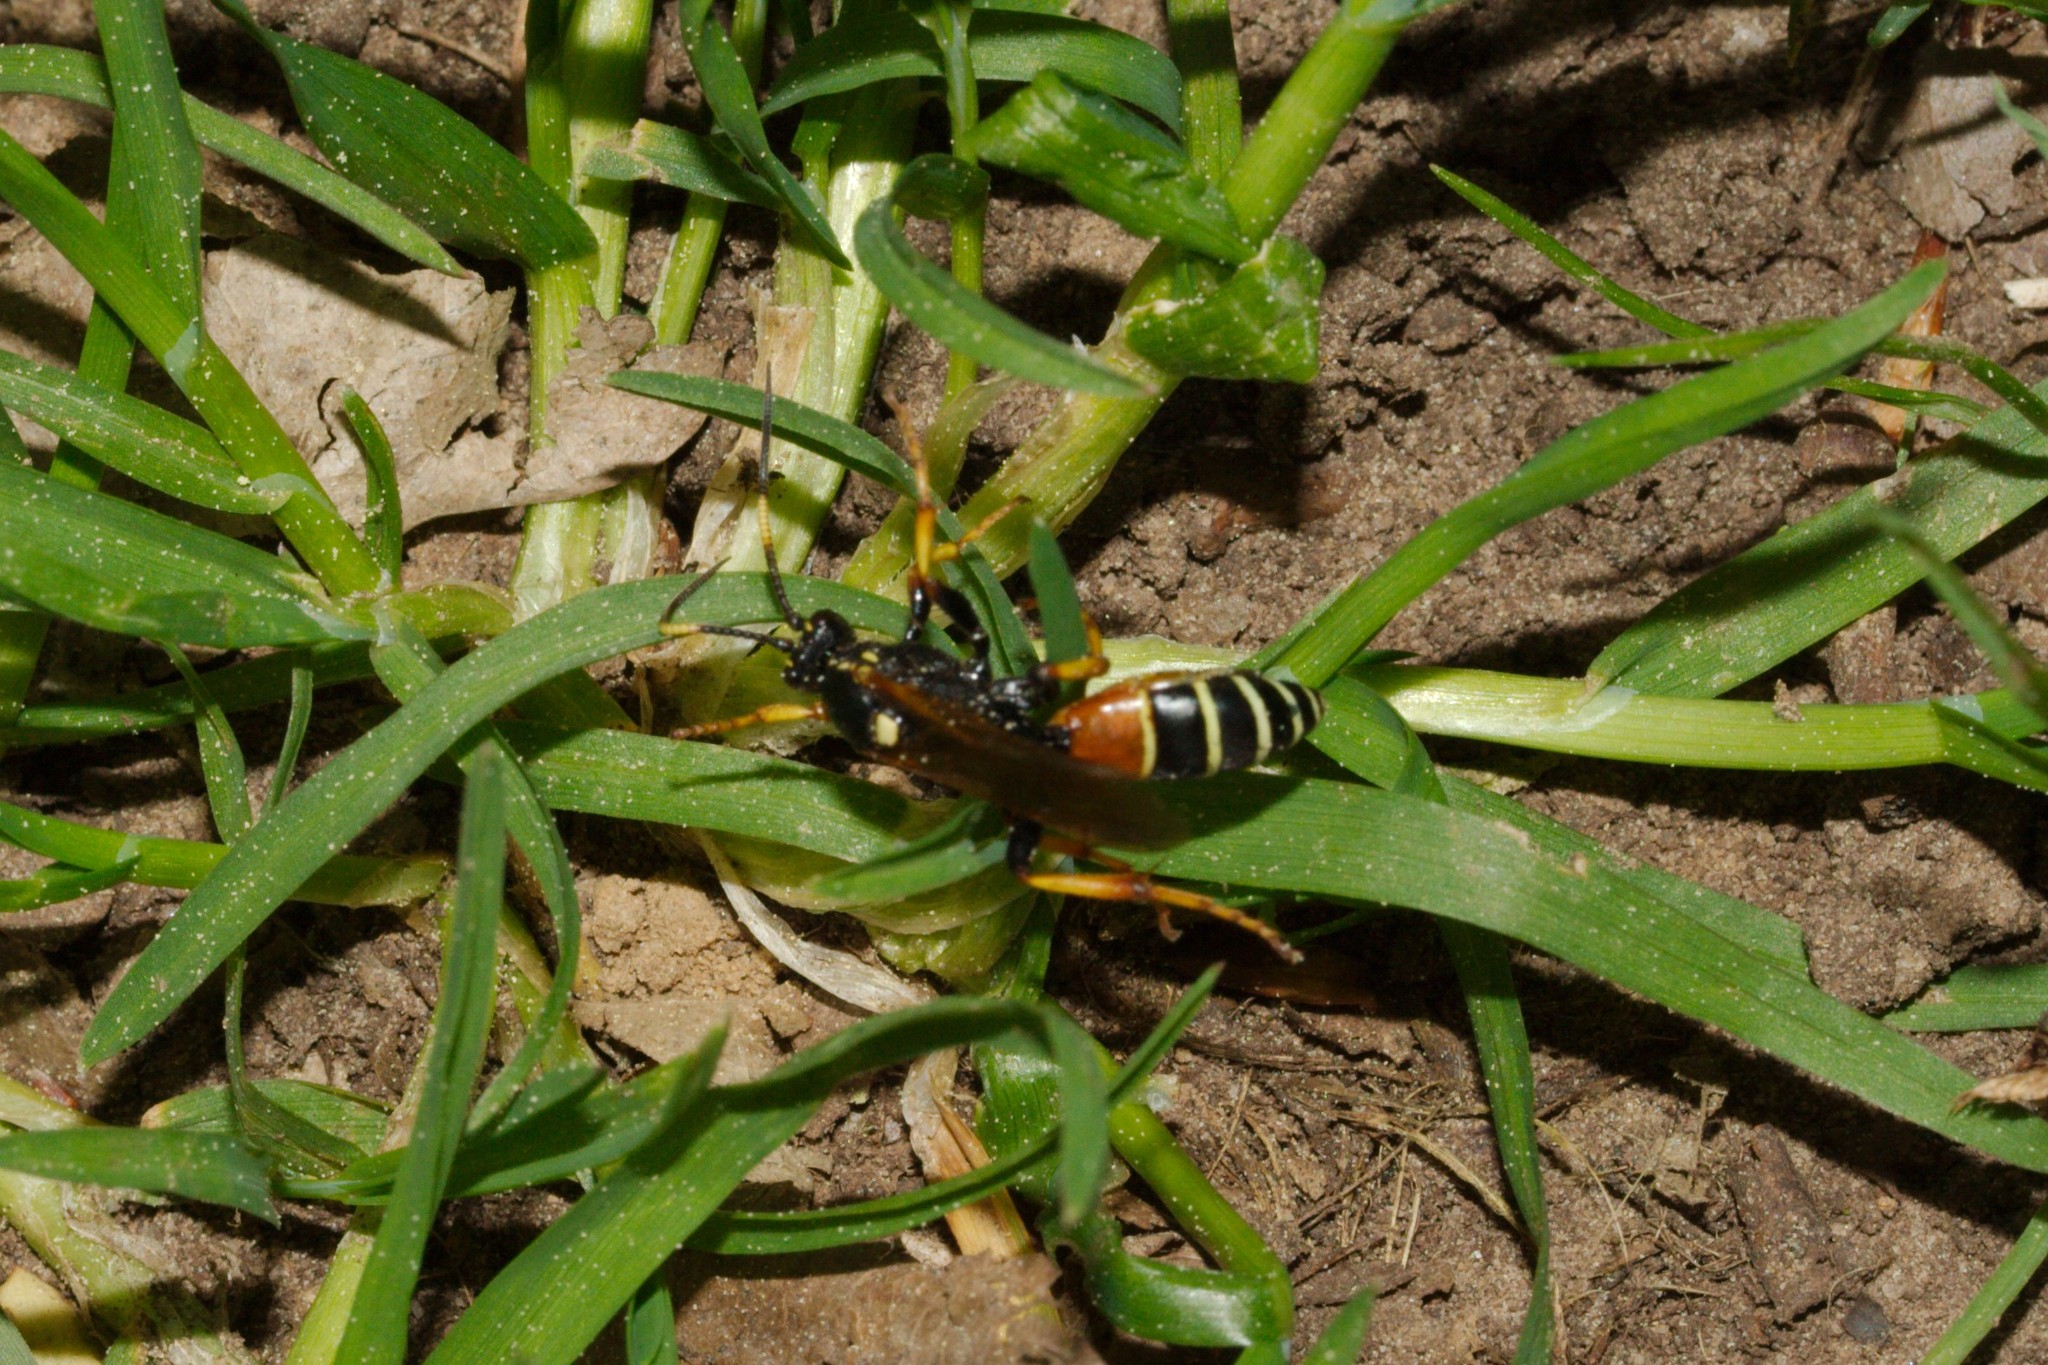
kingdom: Animalia
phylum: Arthropoda
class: Insecta
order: Hymenoptera
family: Ichneumonidae
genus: Diphyus
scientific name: Diphyus amatorius
